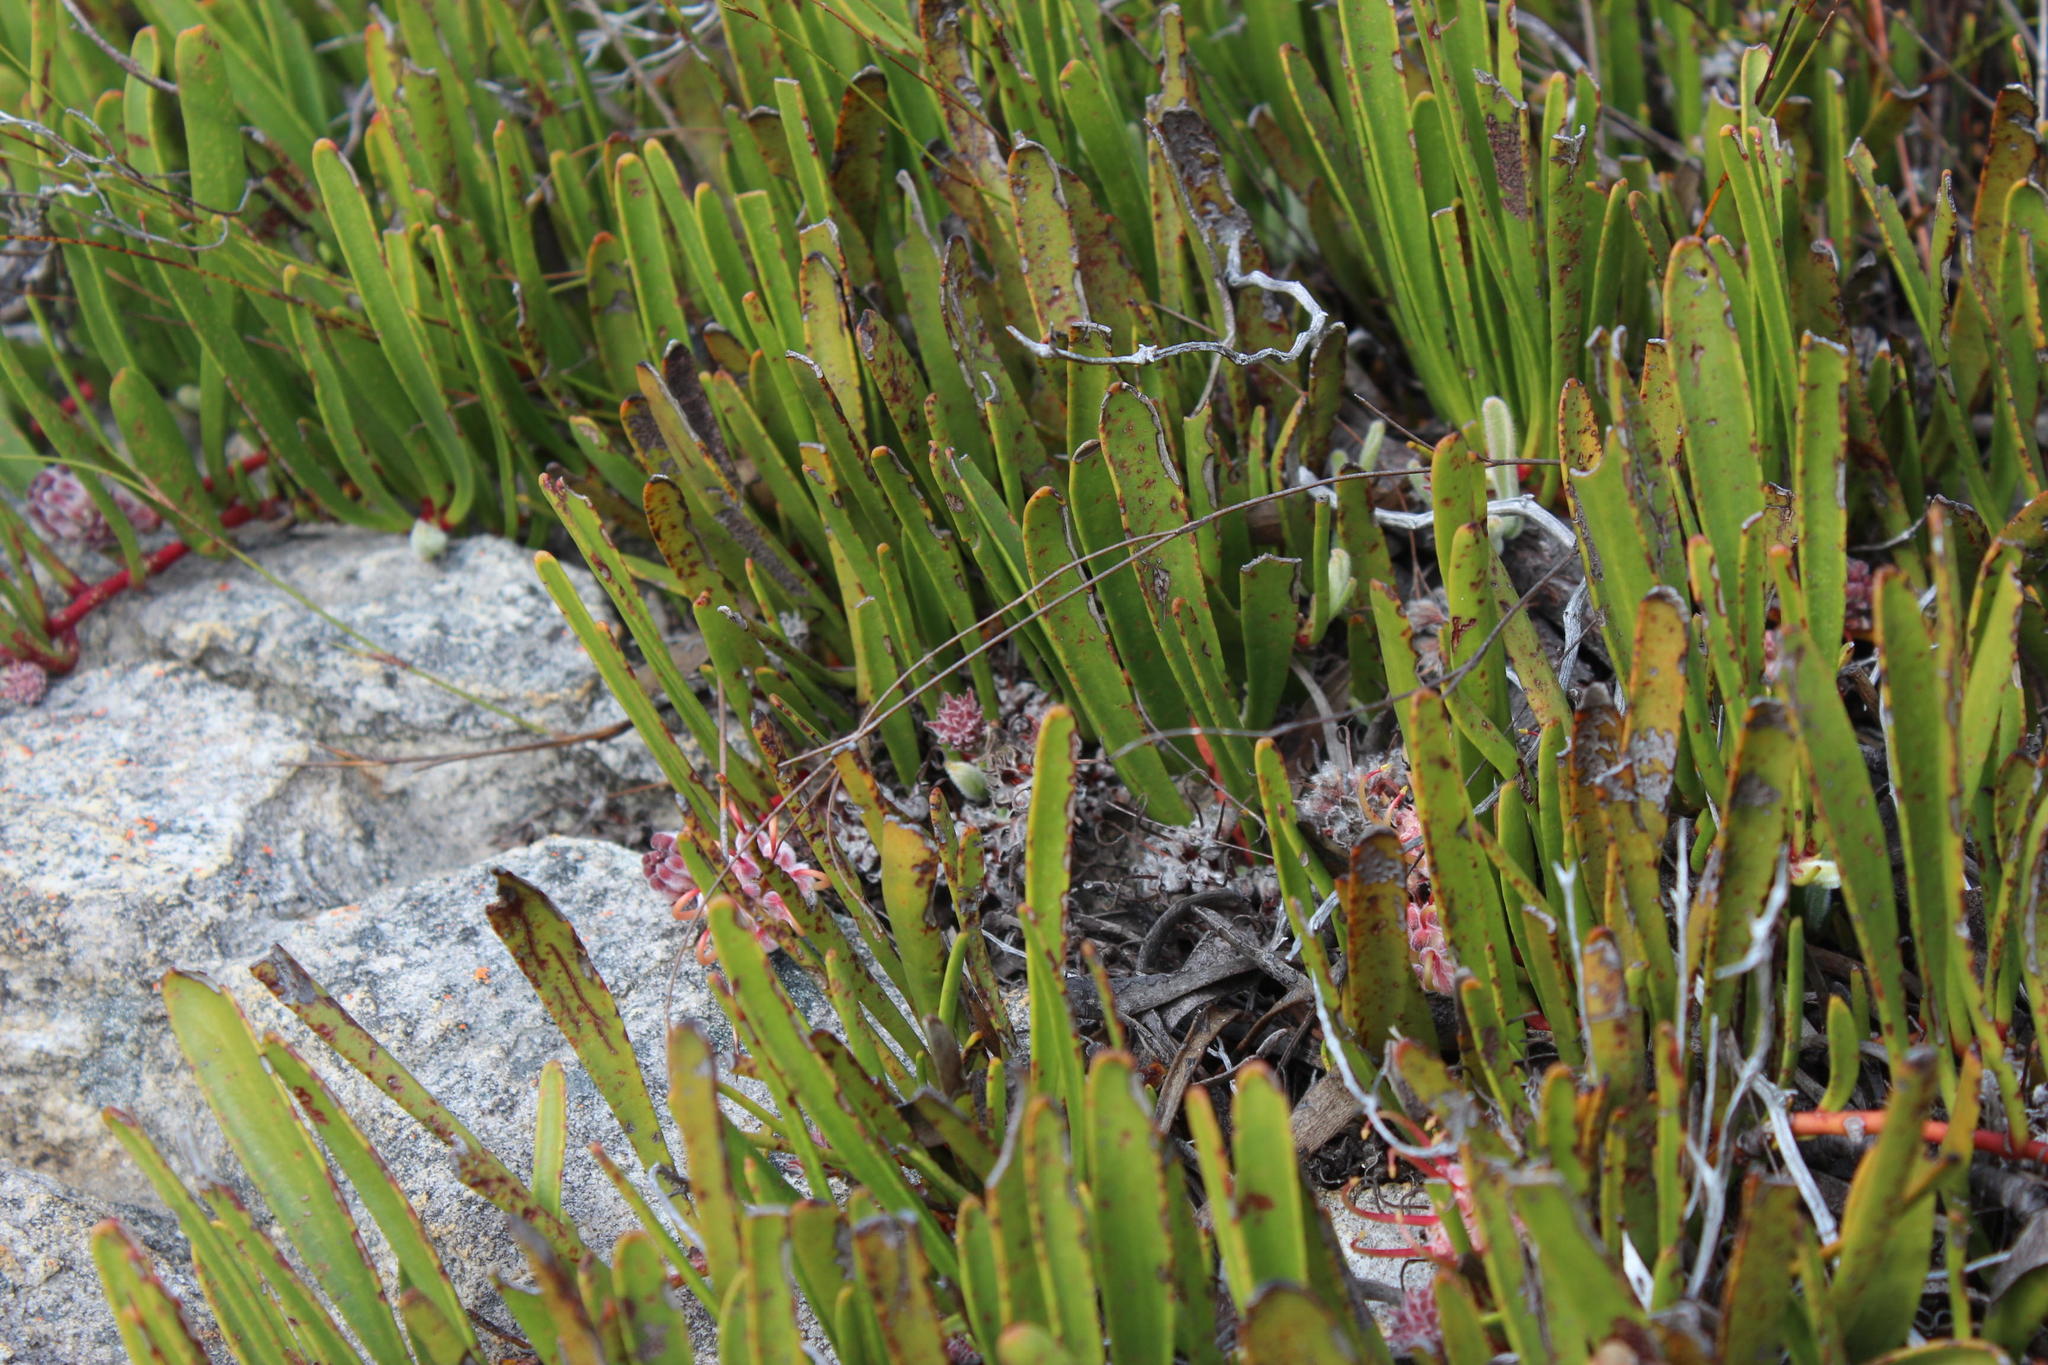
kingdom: Plantae
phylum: Tracheophyta
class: Magnoliopsida
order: Proteales
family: Proteaceae
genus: Leucospermum
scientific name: Leucospermum harpagonatum
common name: Mcgregor pincushion
